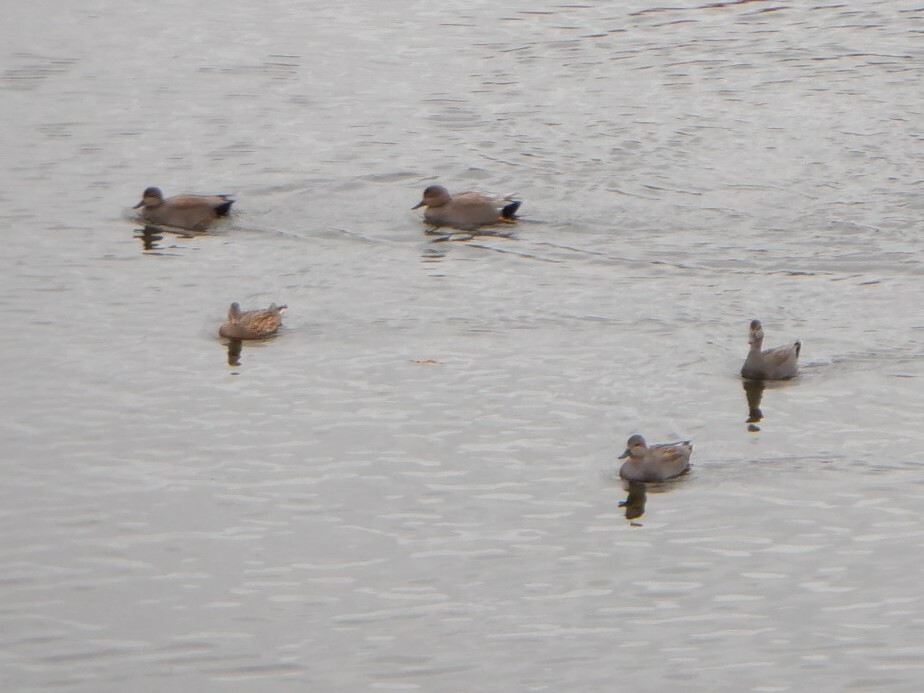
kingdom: Animalia
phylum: Chordata
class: Aves
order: Anseriformes
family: Anatidae
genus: Mareca
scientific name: Mareca strepera
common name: Gadwall
